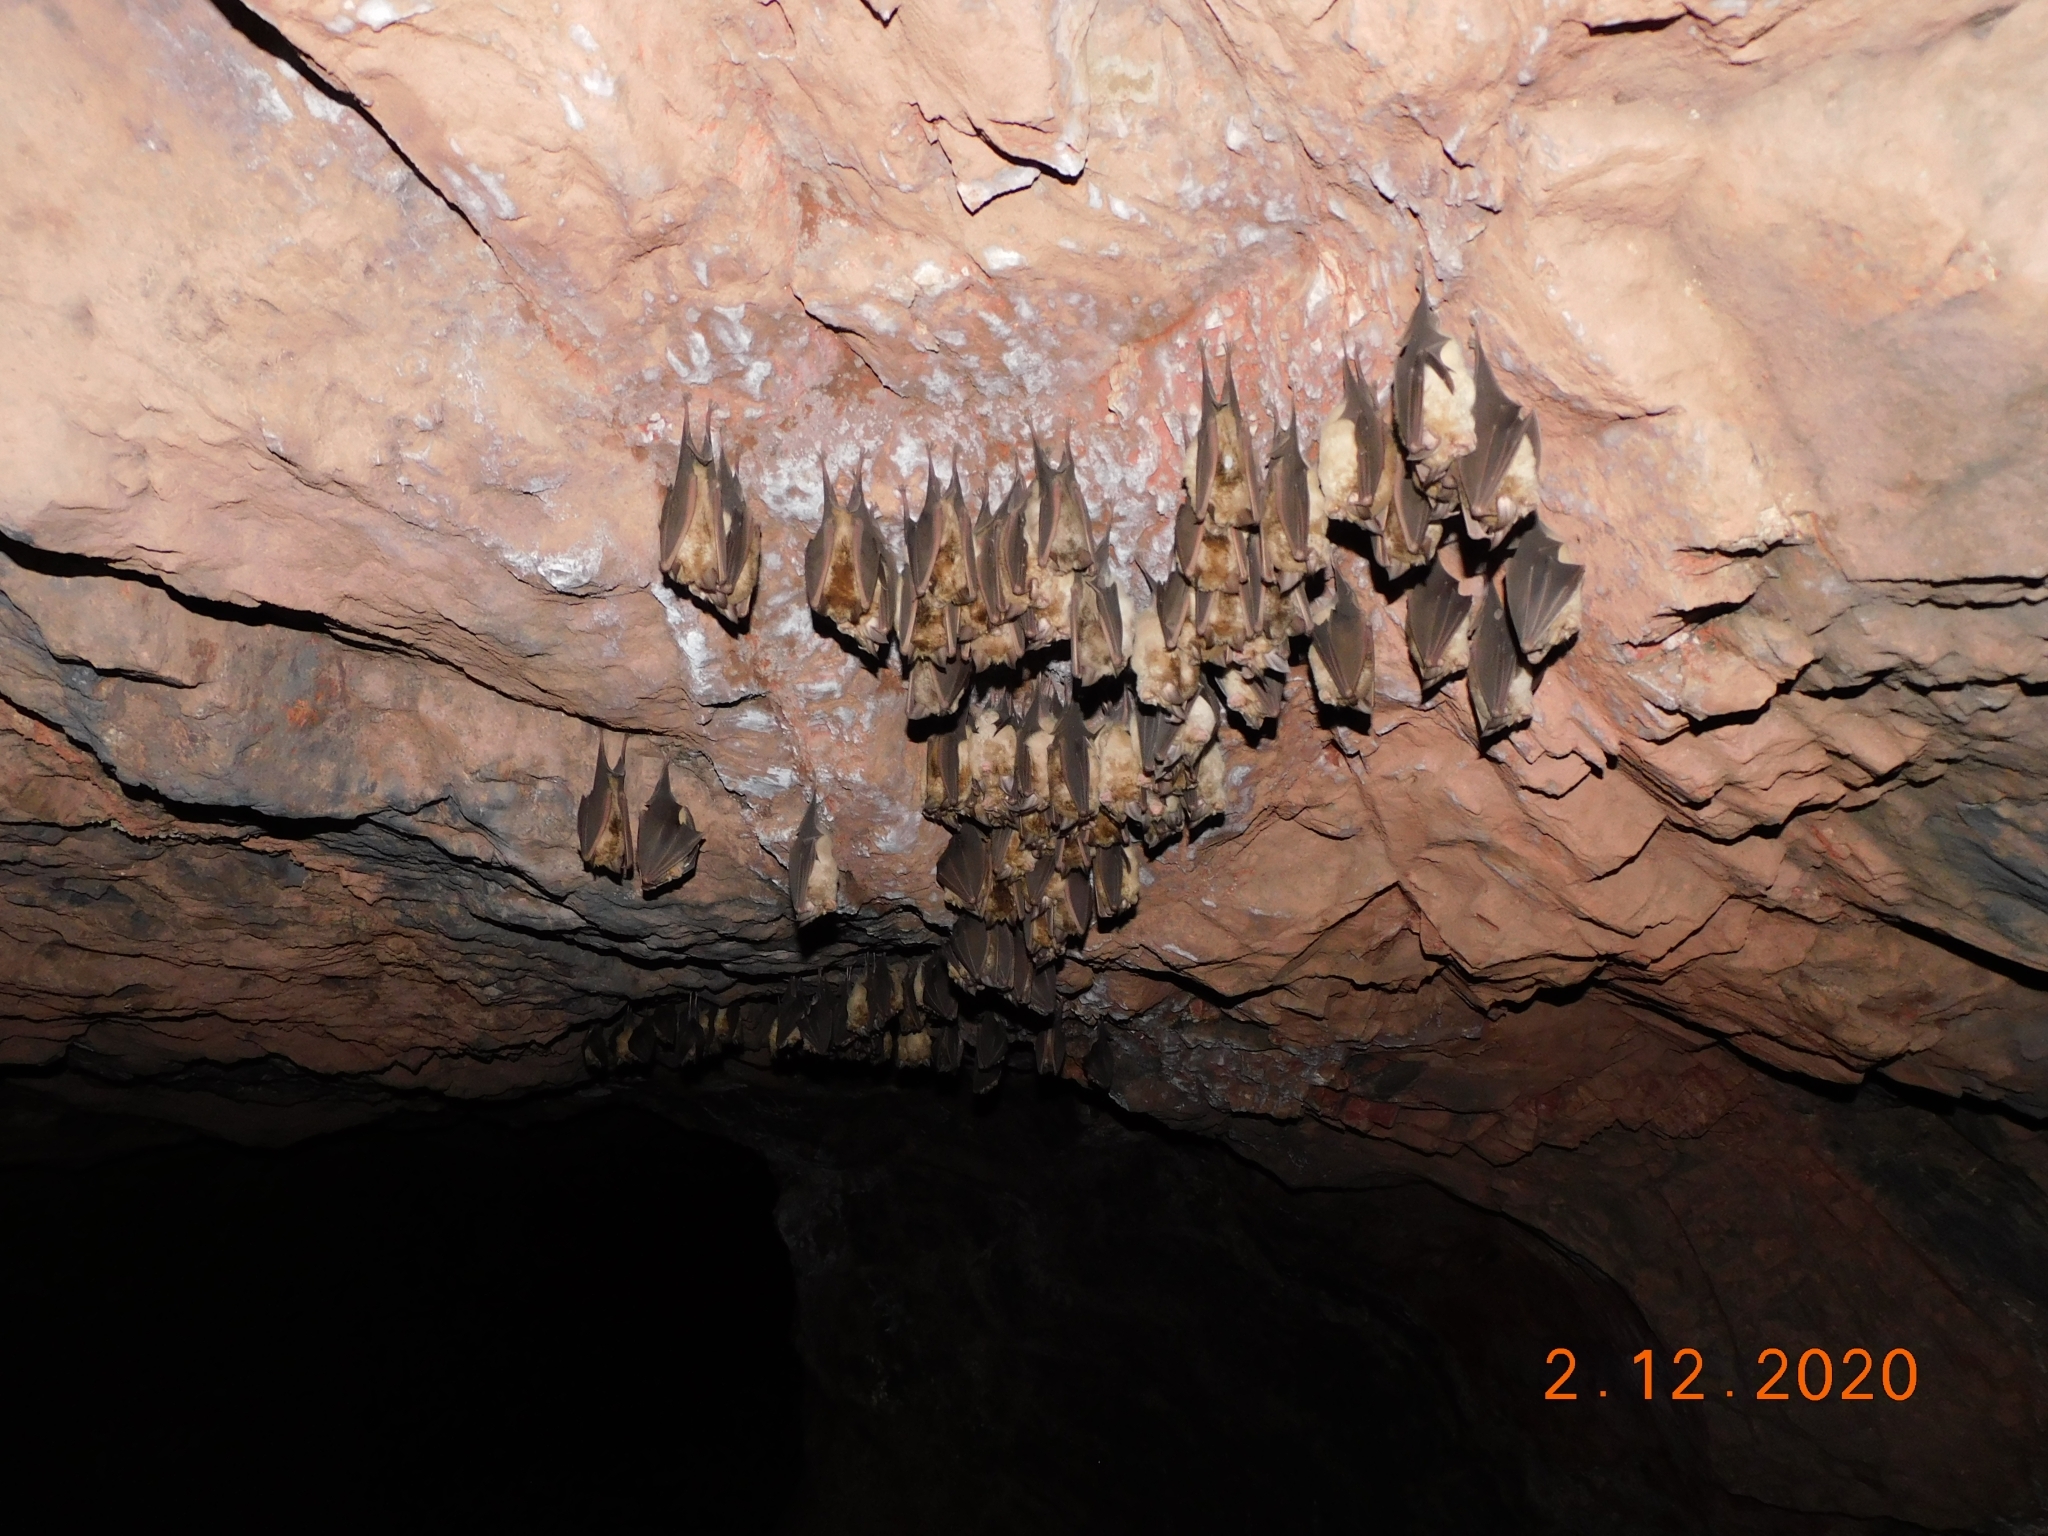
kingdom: Animalia
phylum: Chordata
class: Mammalia
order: Chiroptera
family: Rhinolophidae
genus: Rhinolophus
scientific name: Rhinolophus ferrumequinum
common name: Greater horseshoe bat
